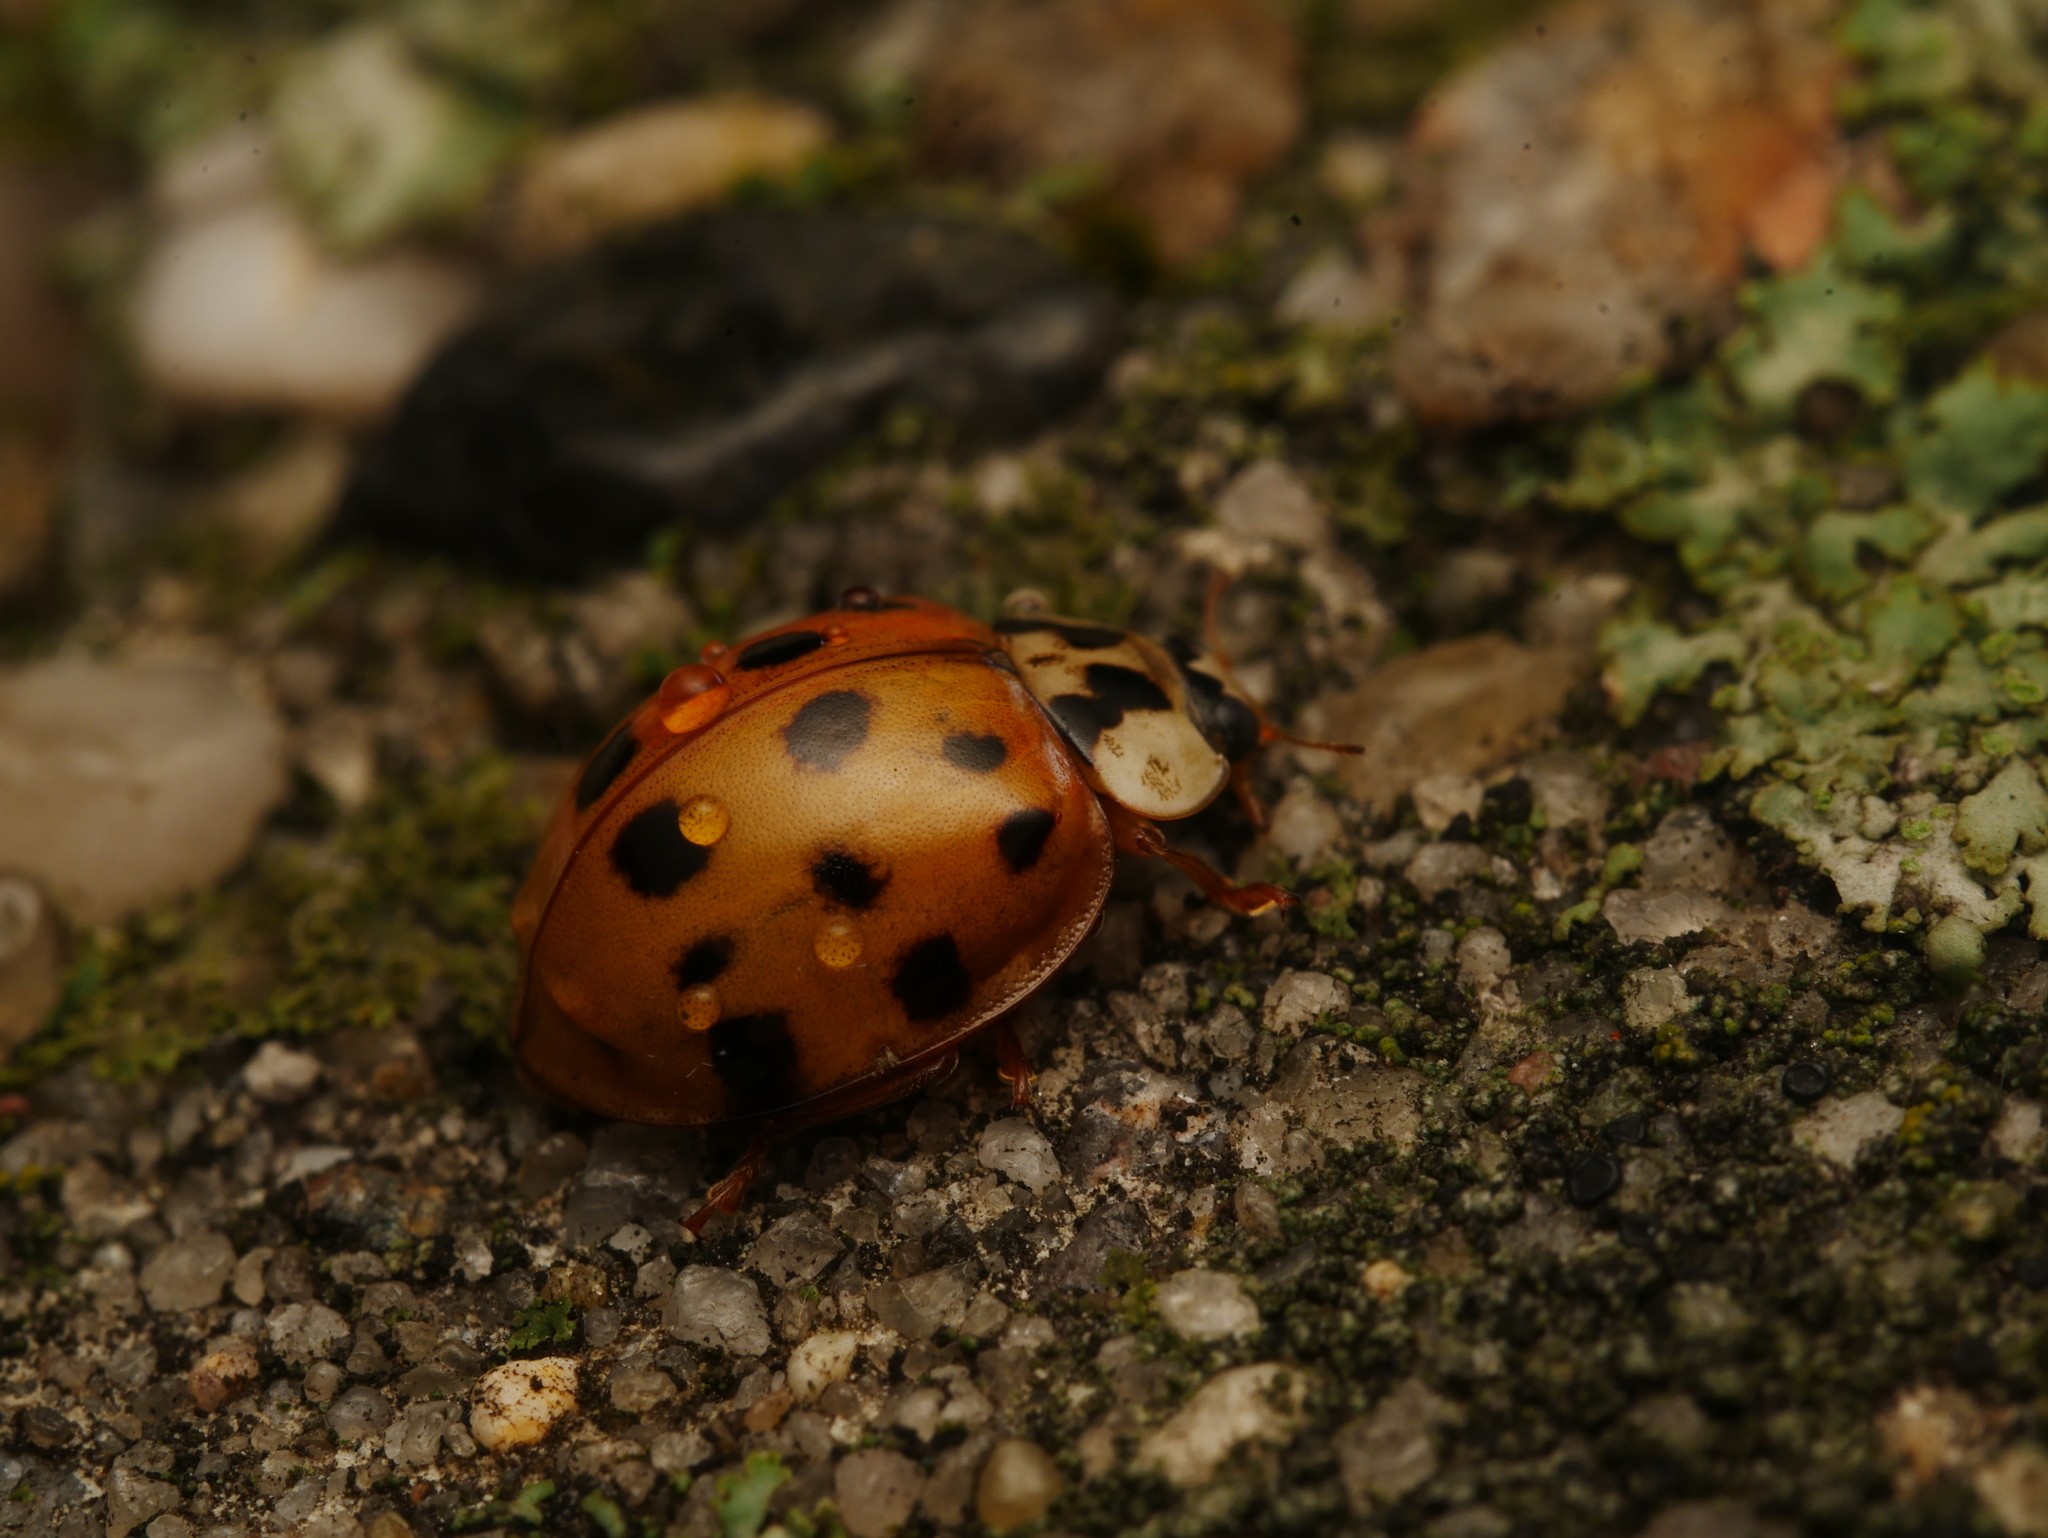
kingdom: Animalia
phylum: Arthropoda
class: Insecta
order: Coleoptera
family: Coccinellidae
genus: Harmonia
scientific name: Harmonia axyridis
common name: Harlequin ladybird
